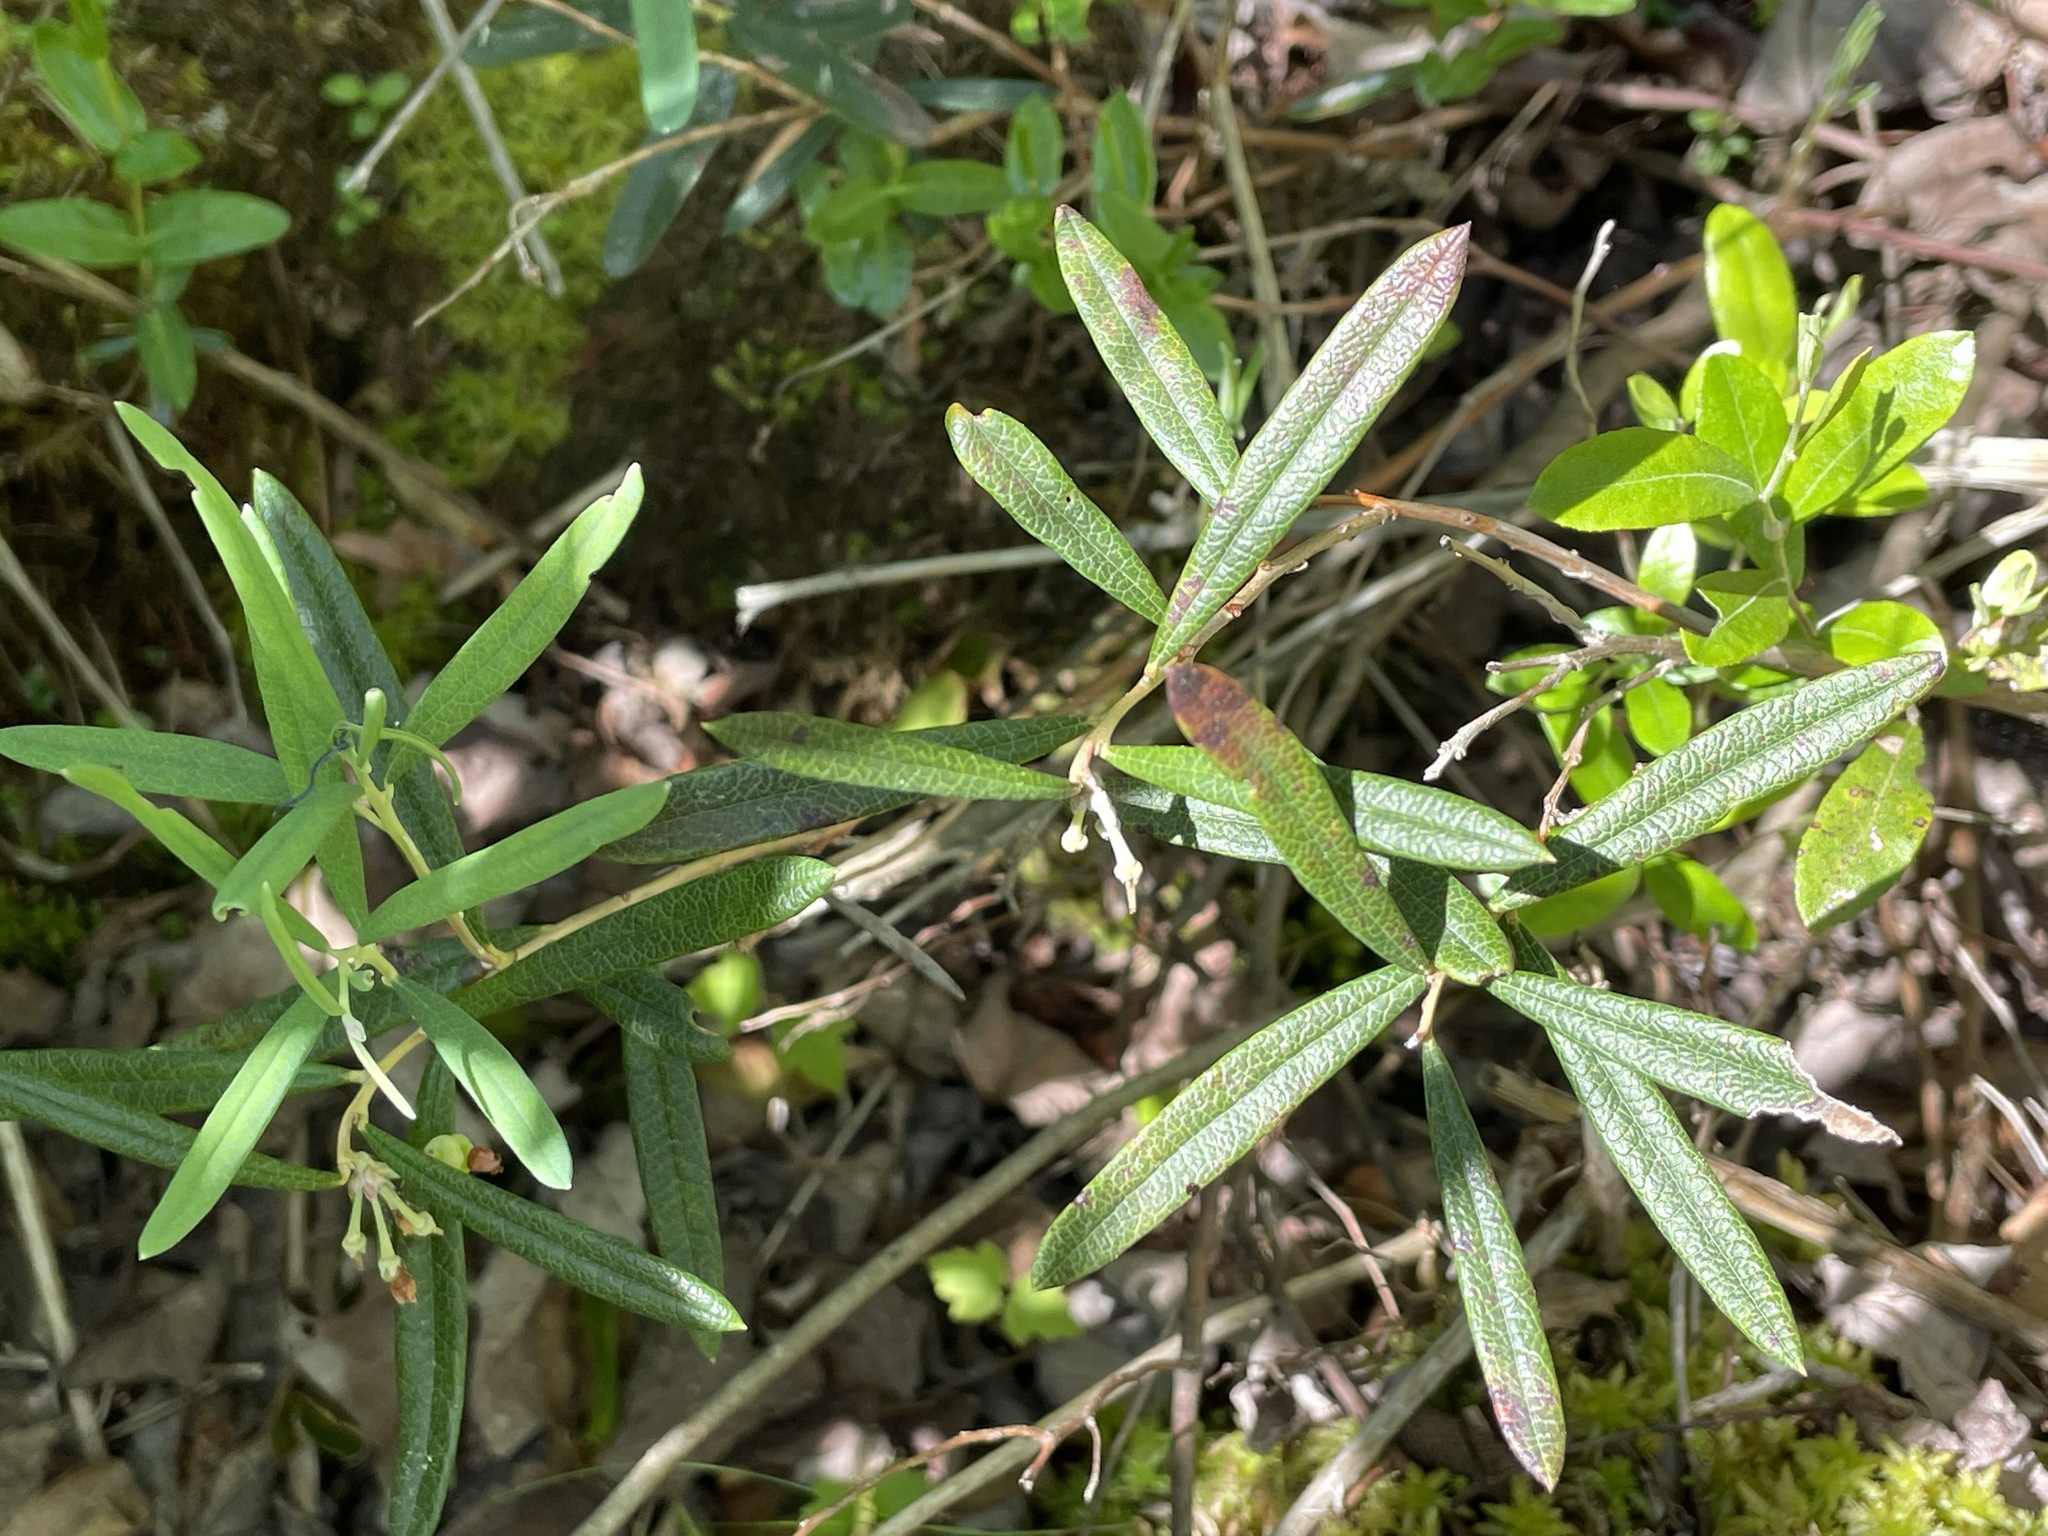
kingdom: Plantae
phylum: Tracheophyta
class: Magnoliopsida
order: Ericales
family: Ericaceae
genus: Andromeda
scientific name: Andromeda polifolia
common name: Bog-rosemary
